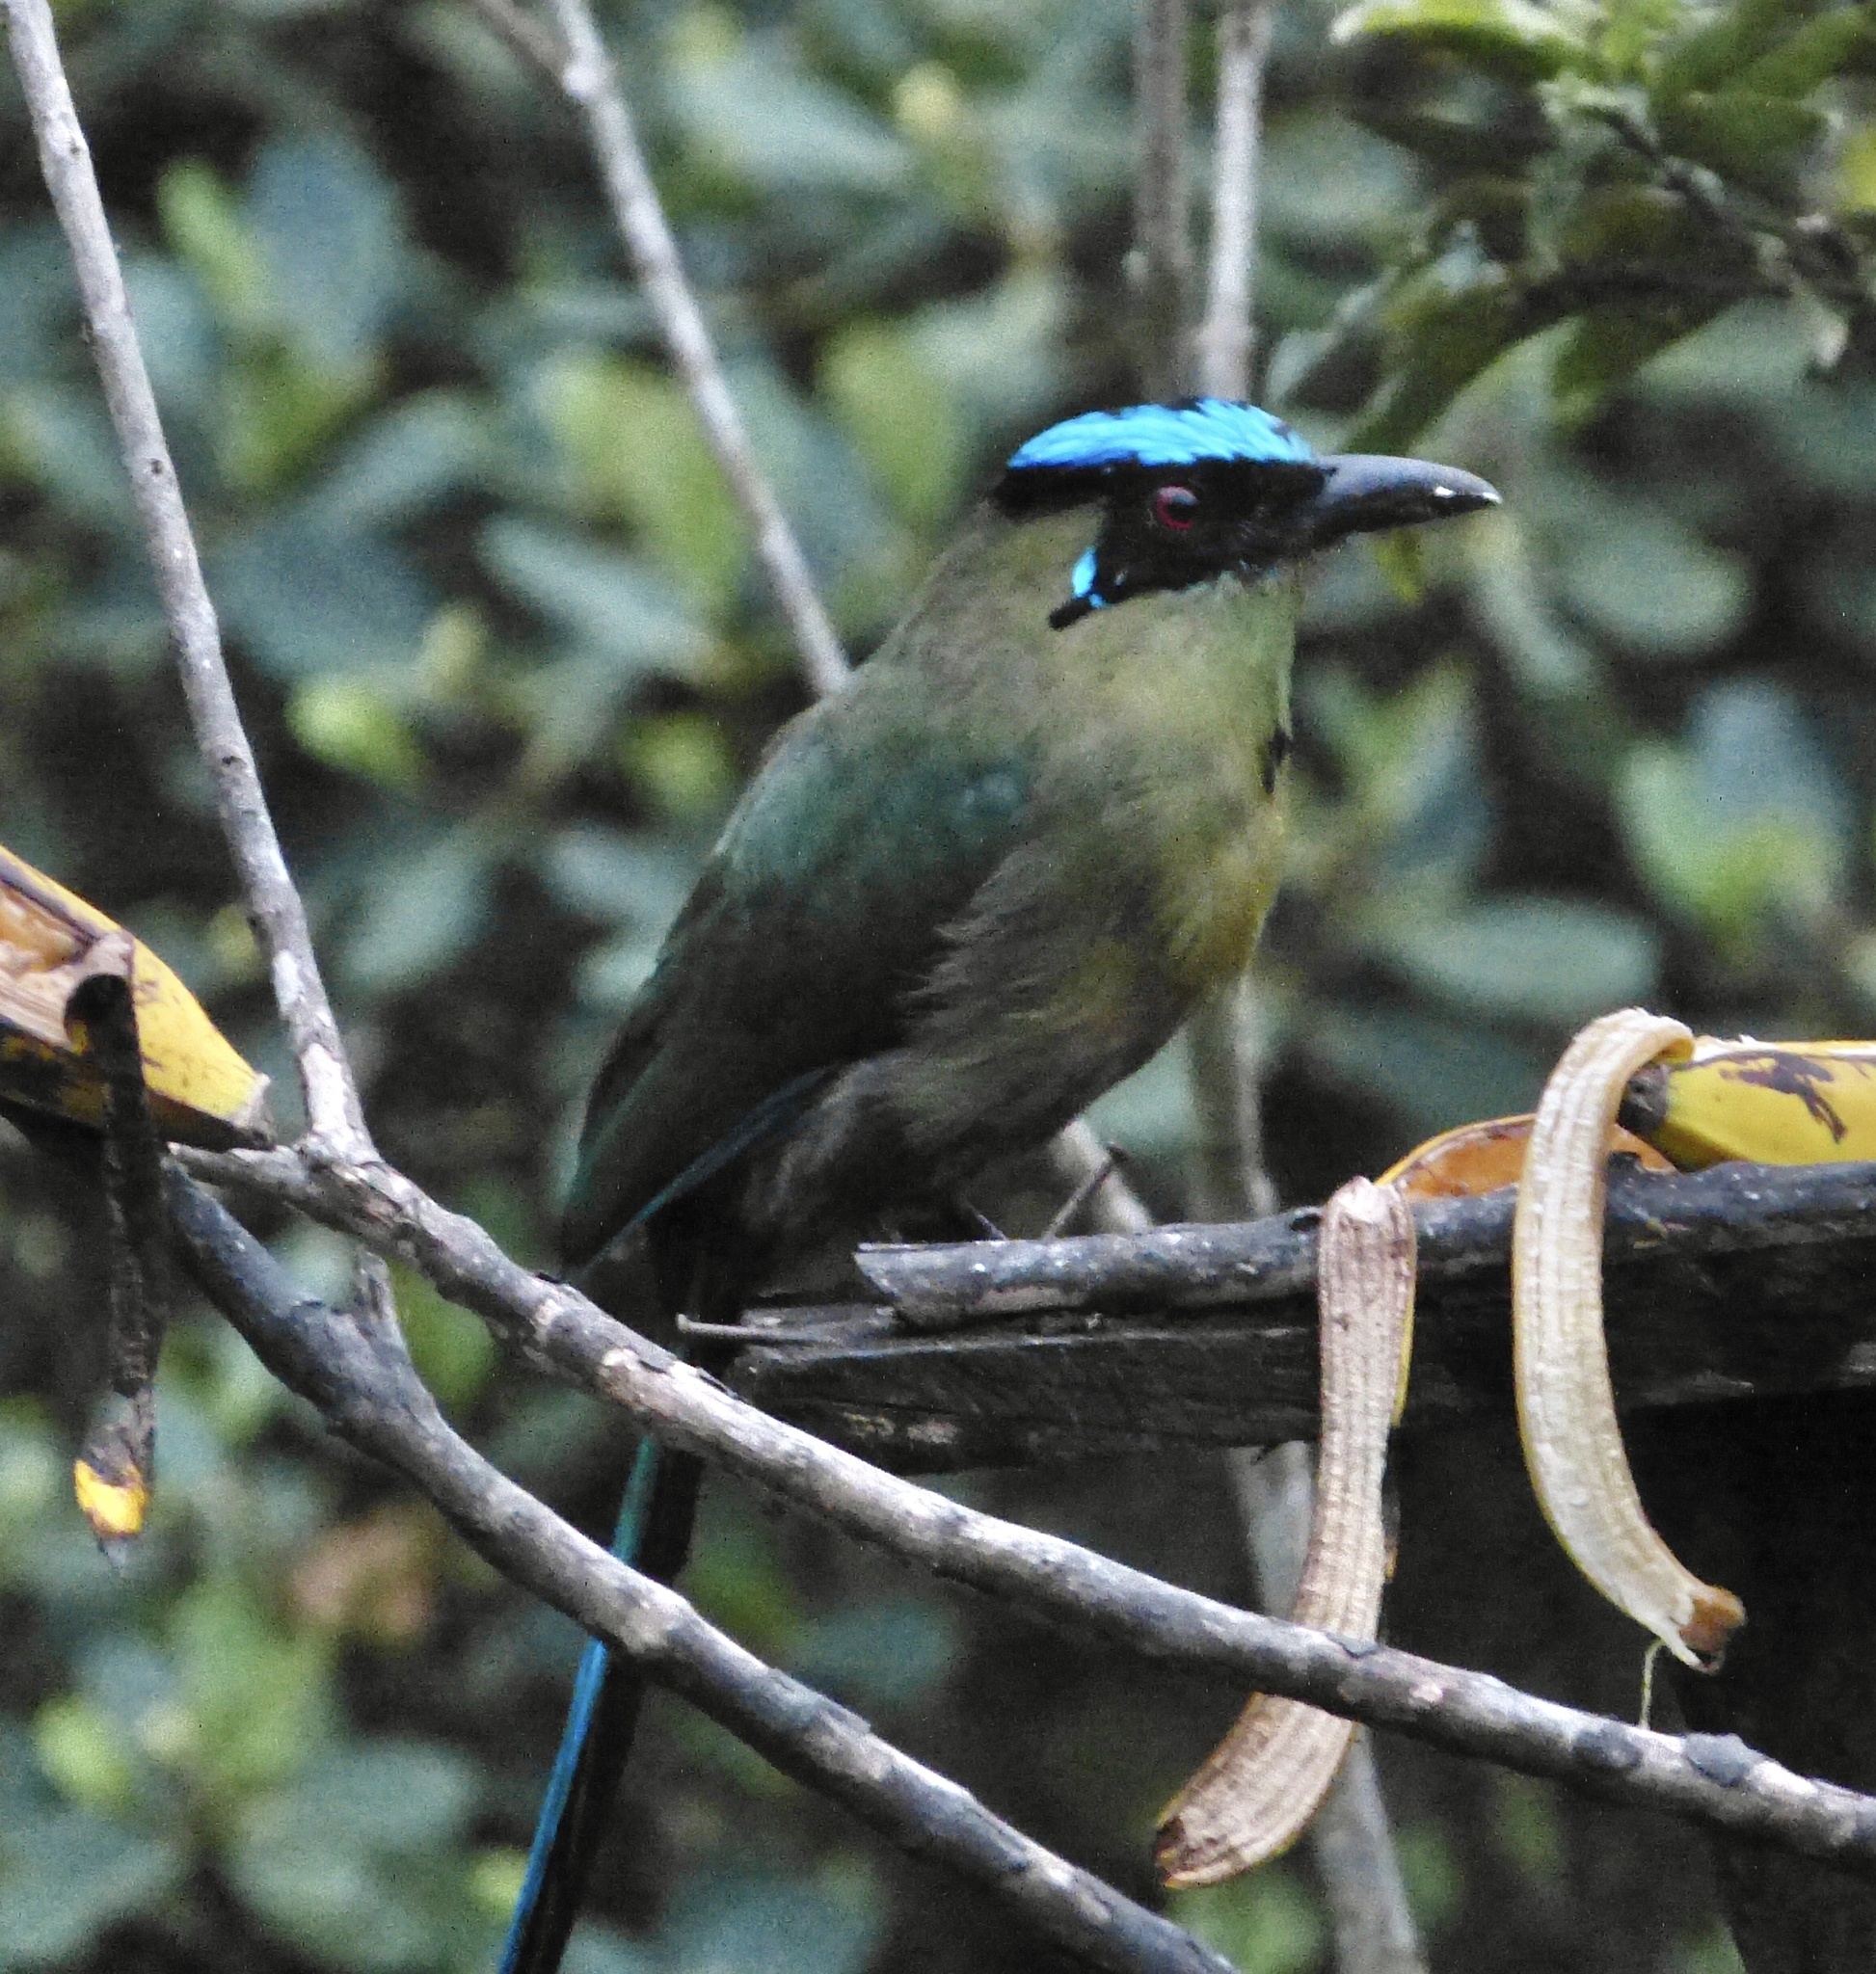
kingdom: Animalia
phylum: Chordata
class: Aves
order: Coraciiformes
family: Momotidae
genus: Momotus
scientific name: Momotus aequatorialis
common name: Andean motmot
